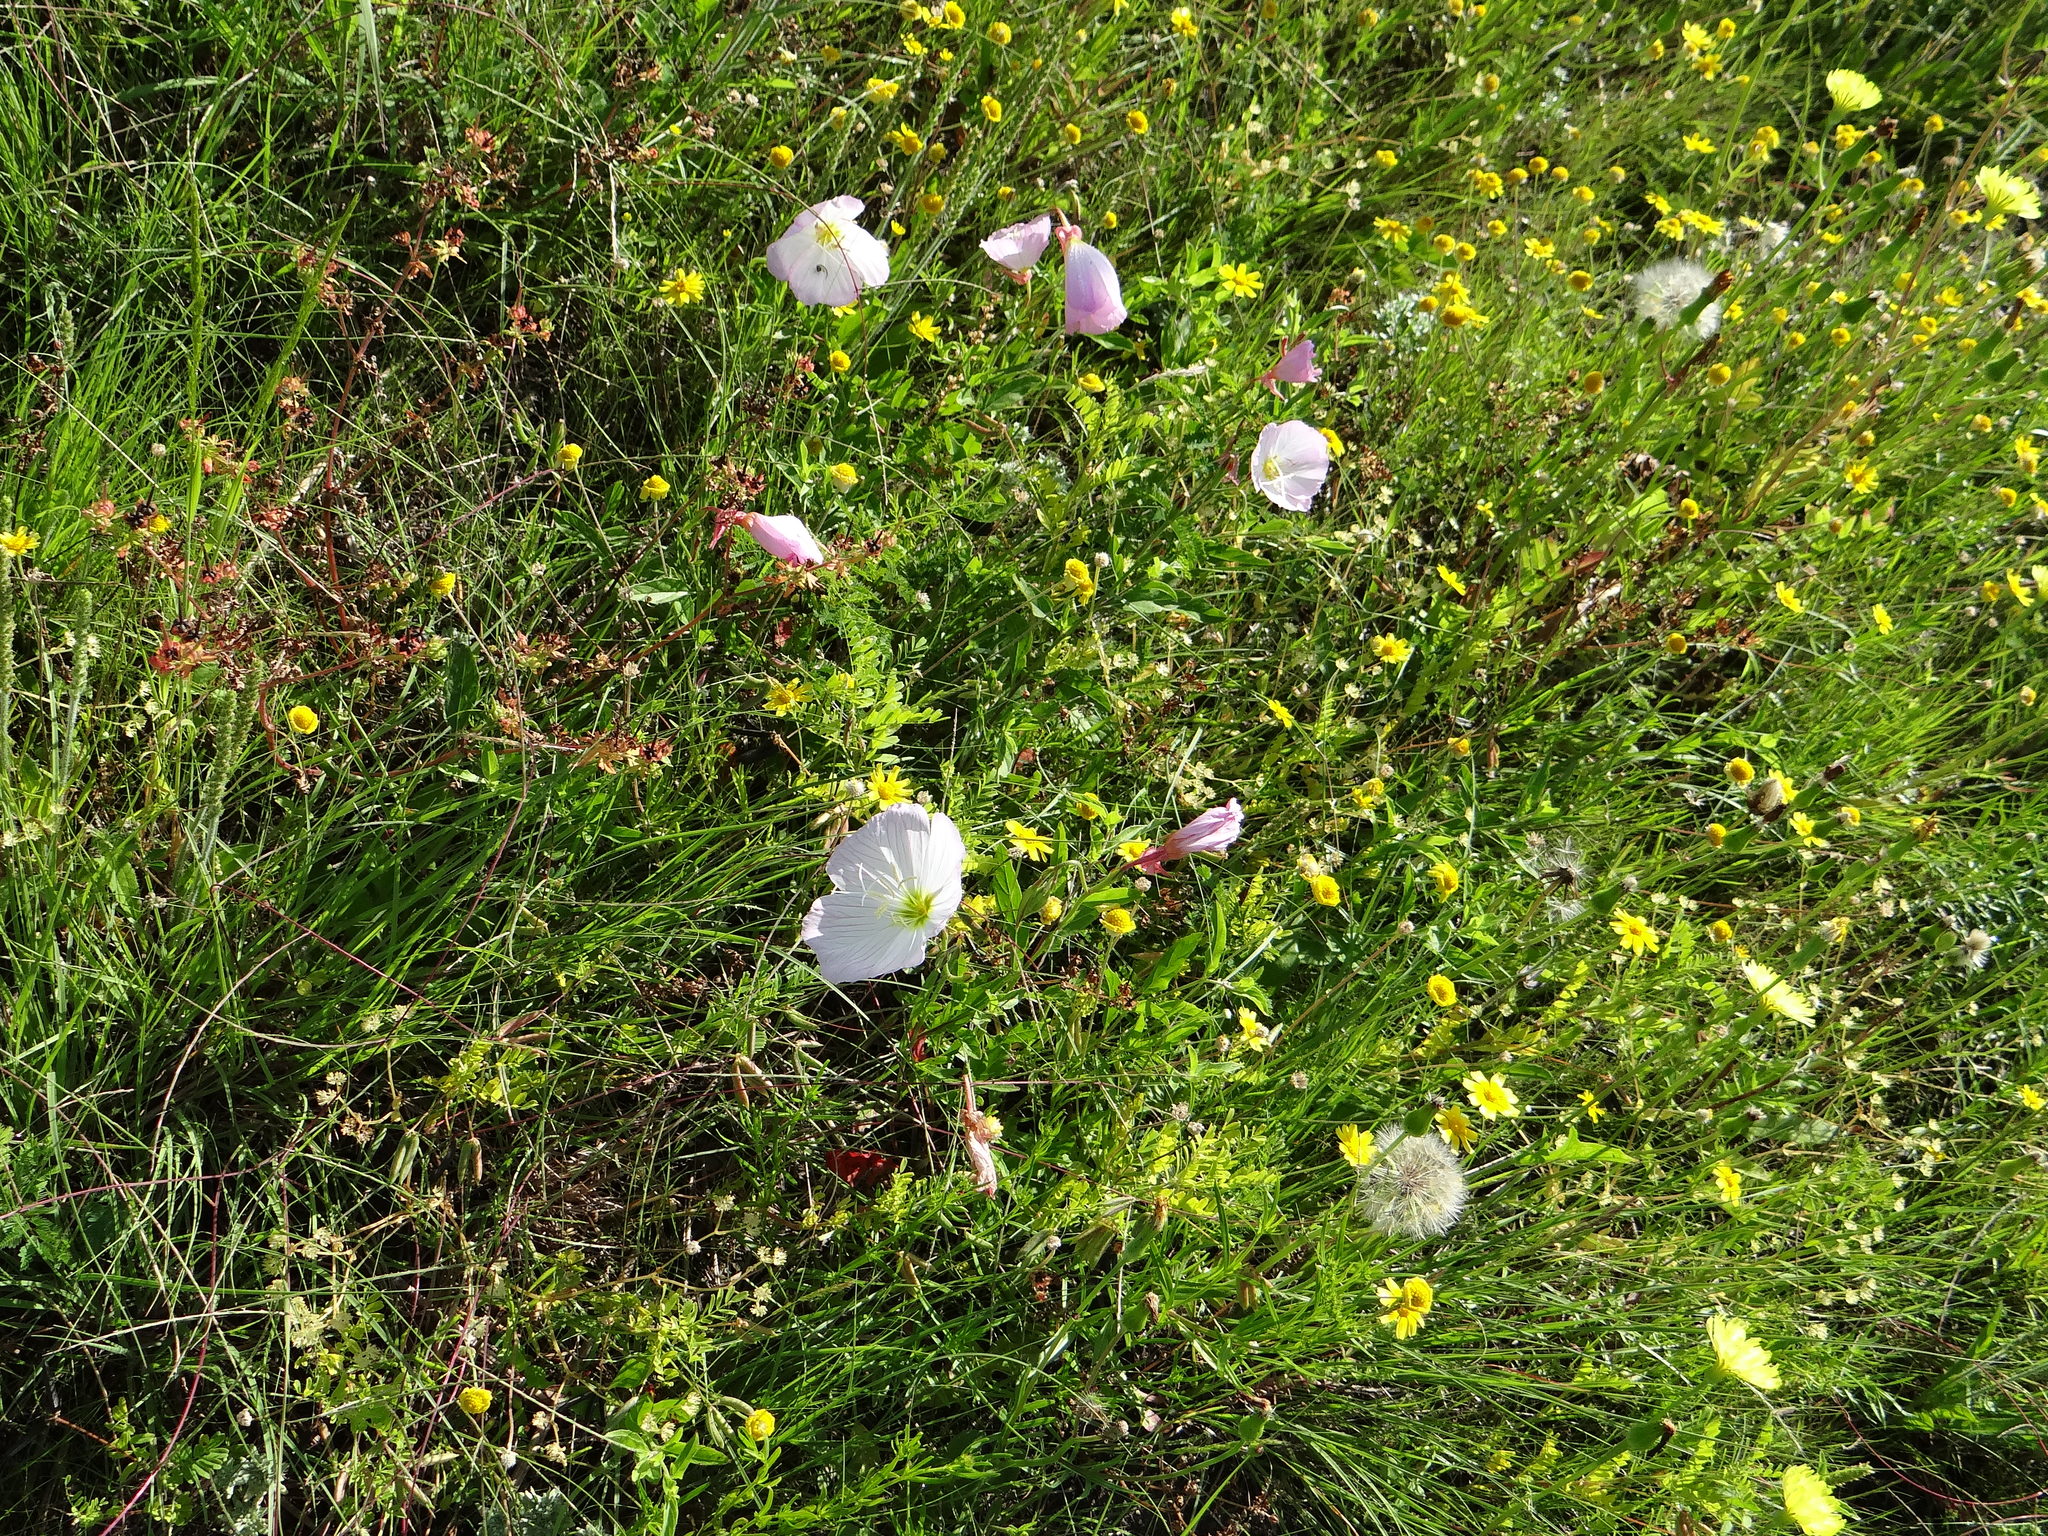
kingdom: Plantae
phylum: Tracheophyta
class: Magnoliopsida
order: Myrtales
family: Onagraceae
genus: Oenothera
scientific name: Oenothera speciosa
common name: White evening-primrose
